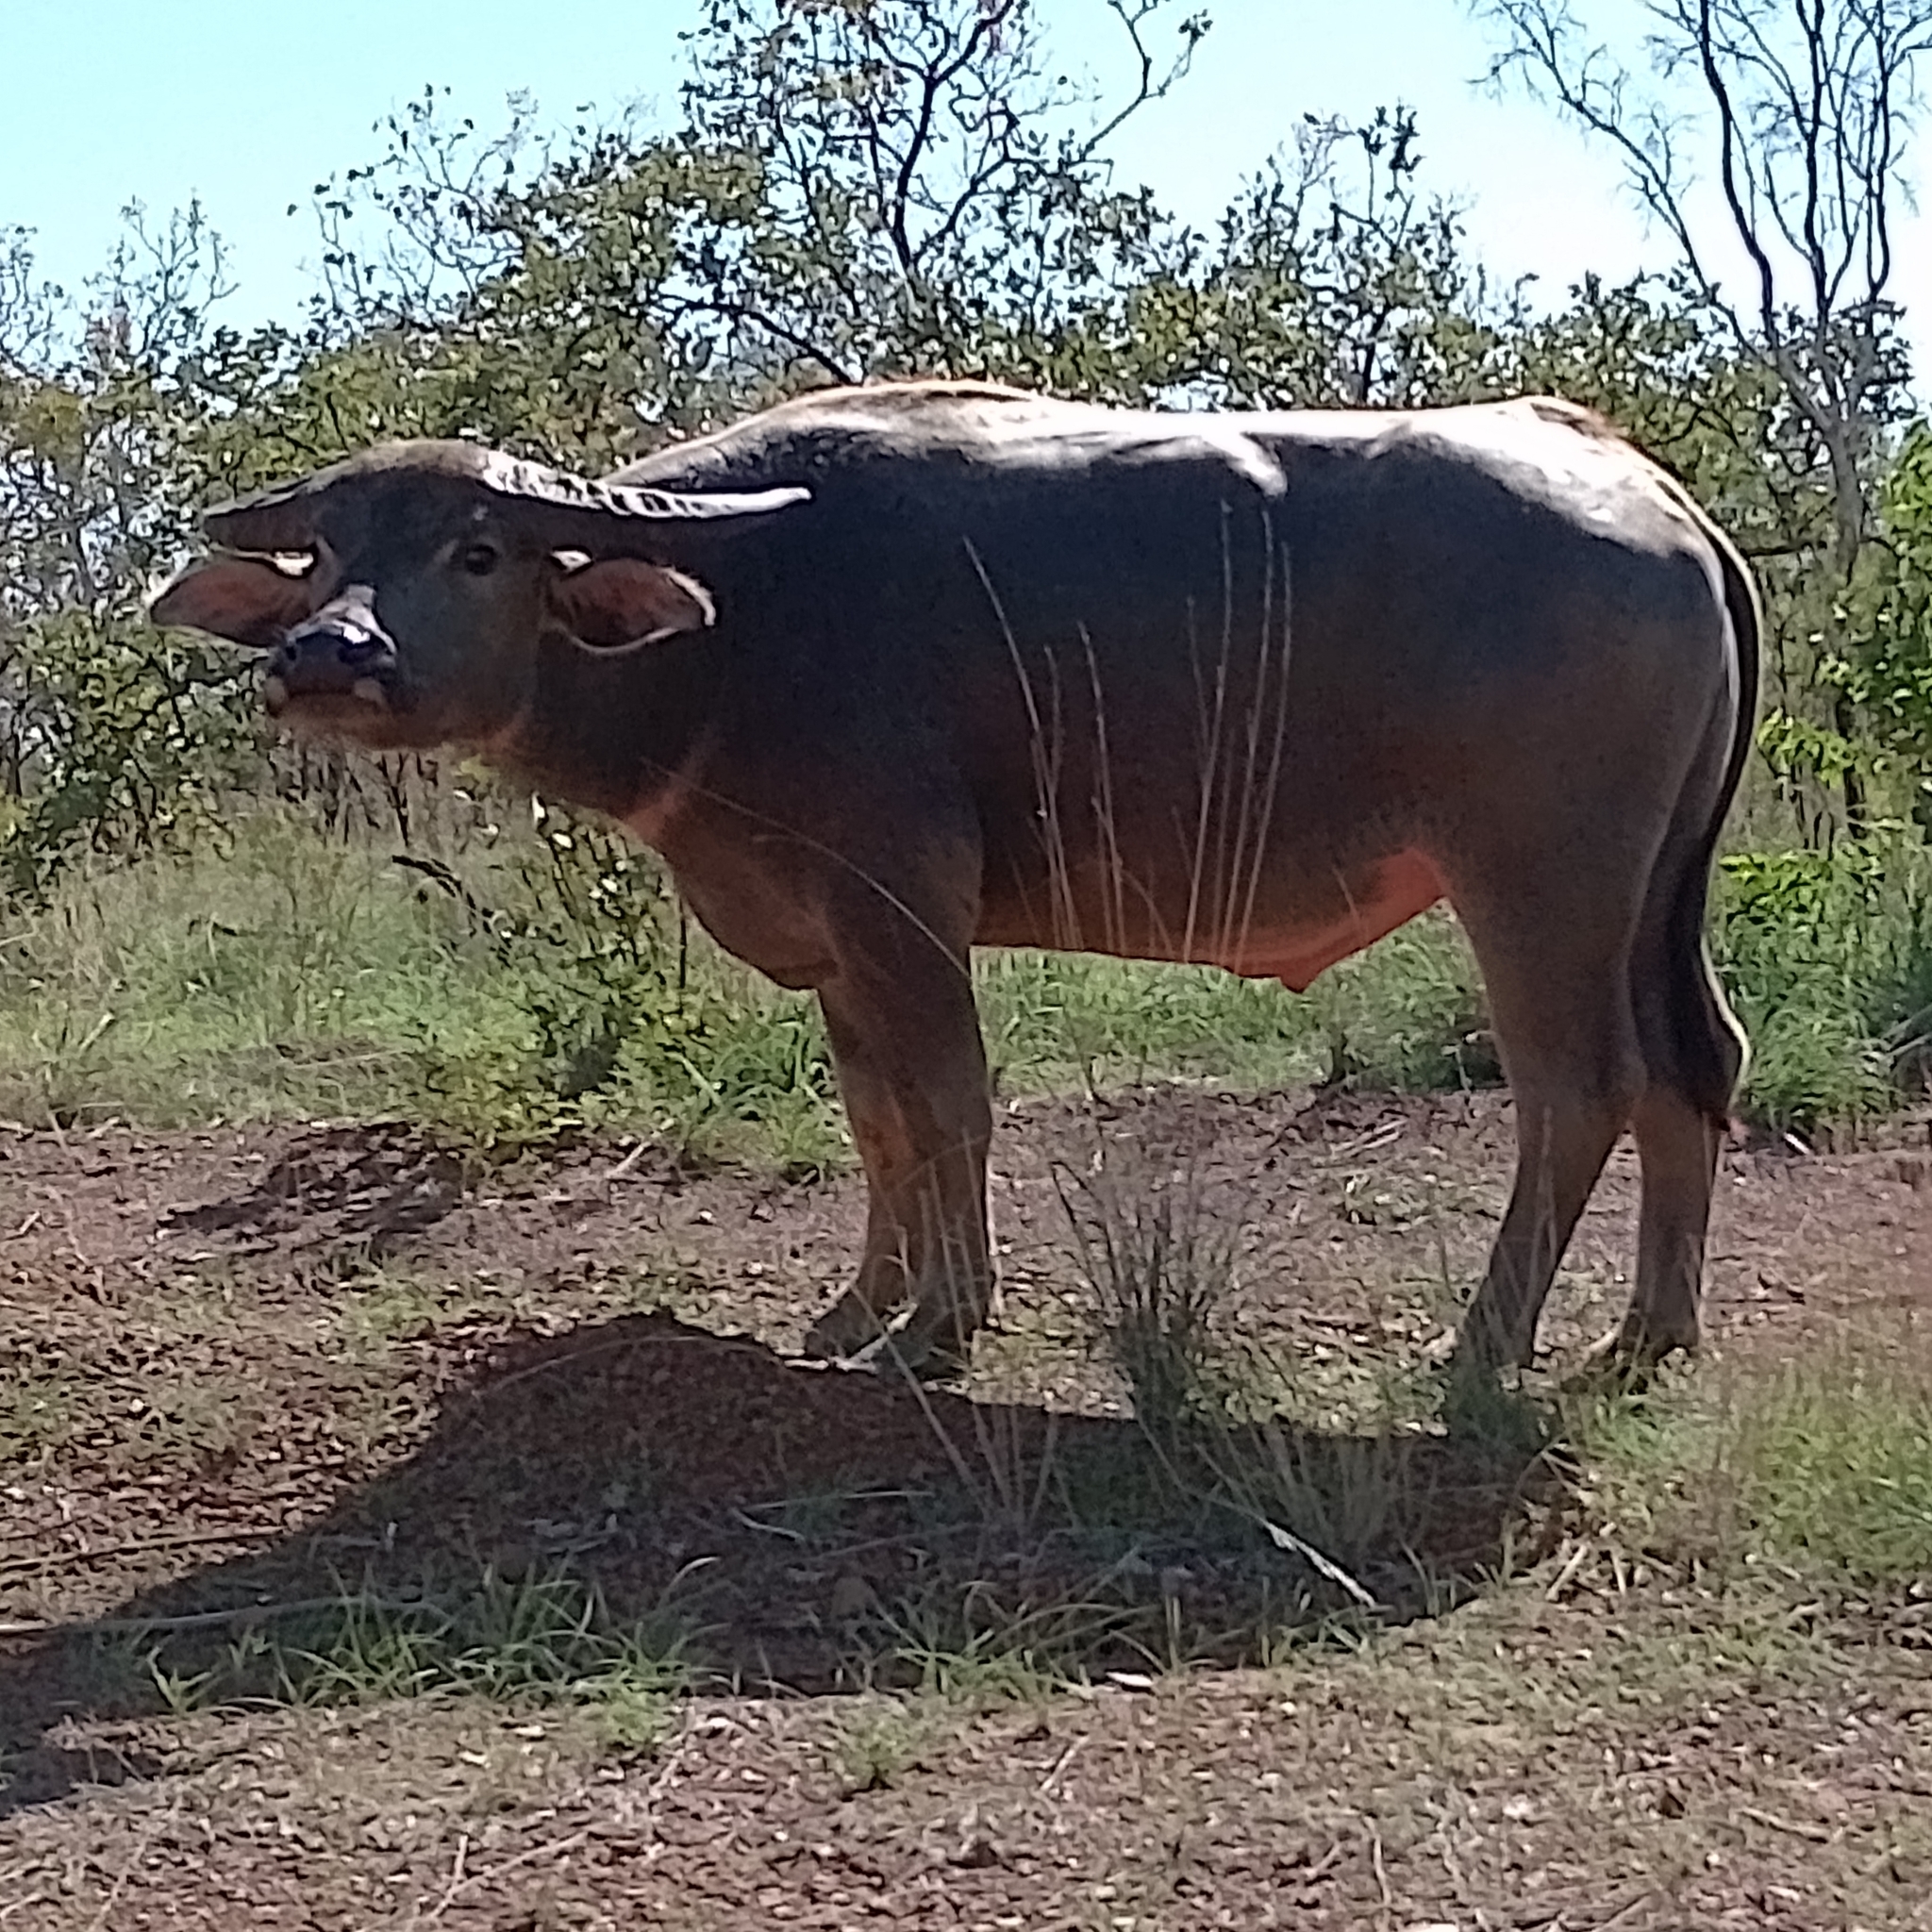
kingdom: Animalia
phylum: Chordata
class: Mammalia
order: Artiodactyla
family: Bovidae
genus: Bubalus
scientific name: Bubalus bubalis
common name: Water buffalo
